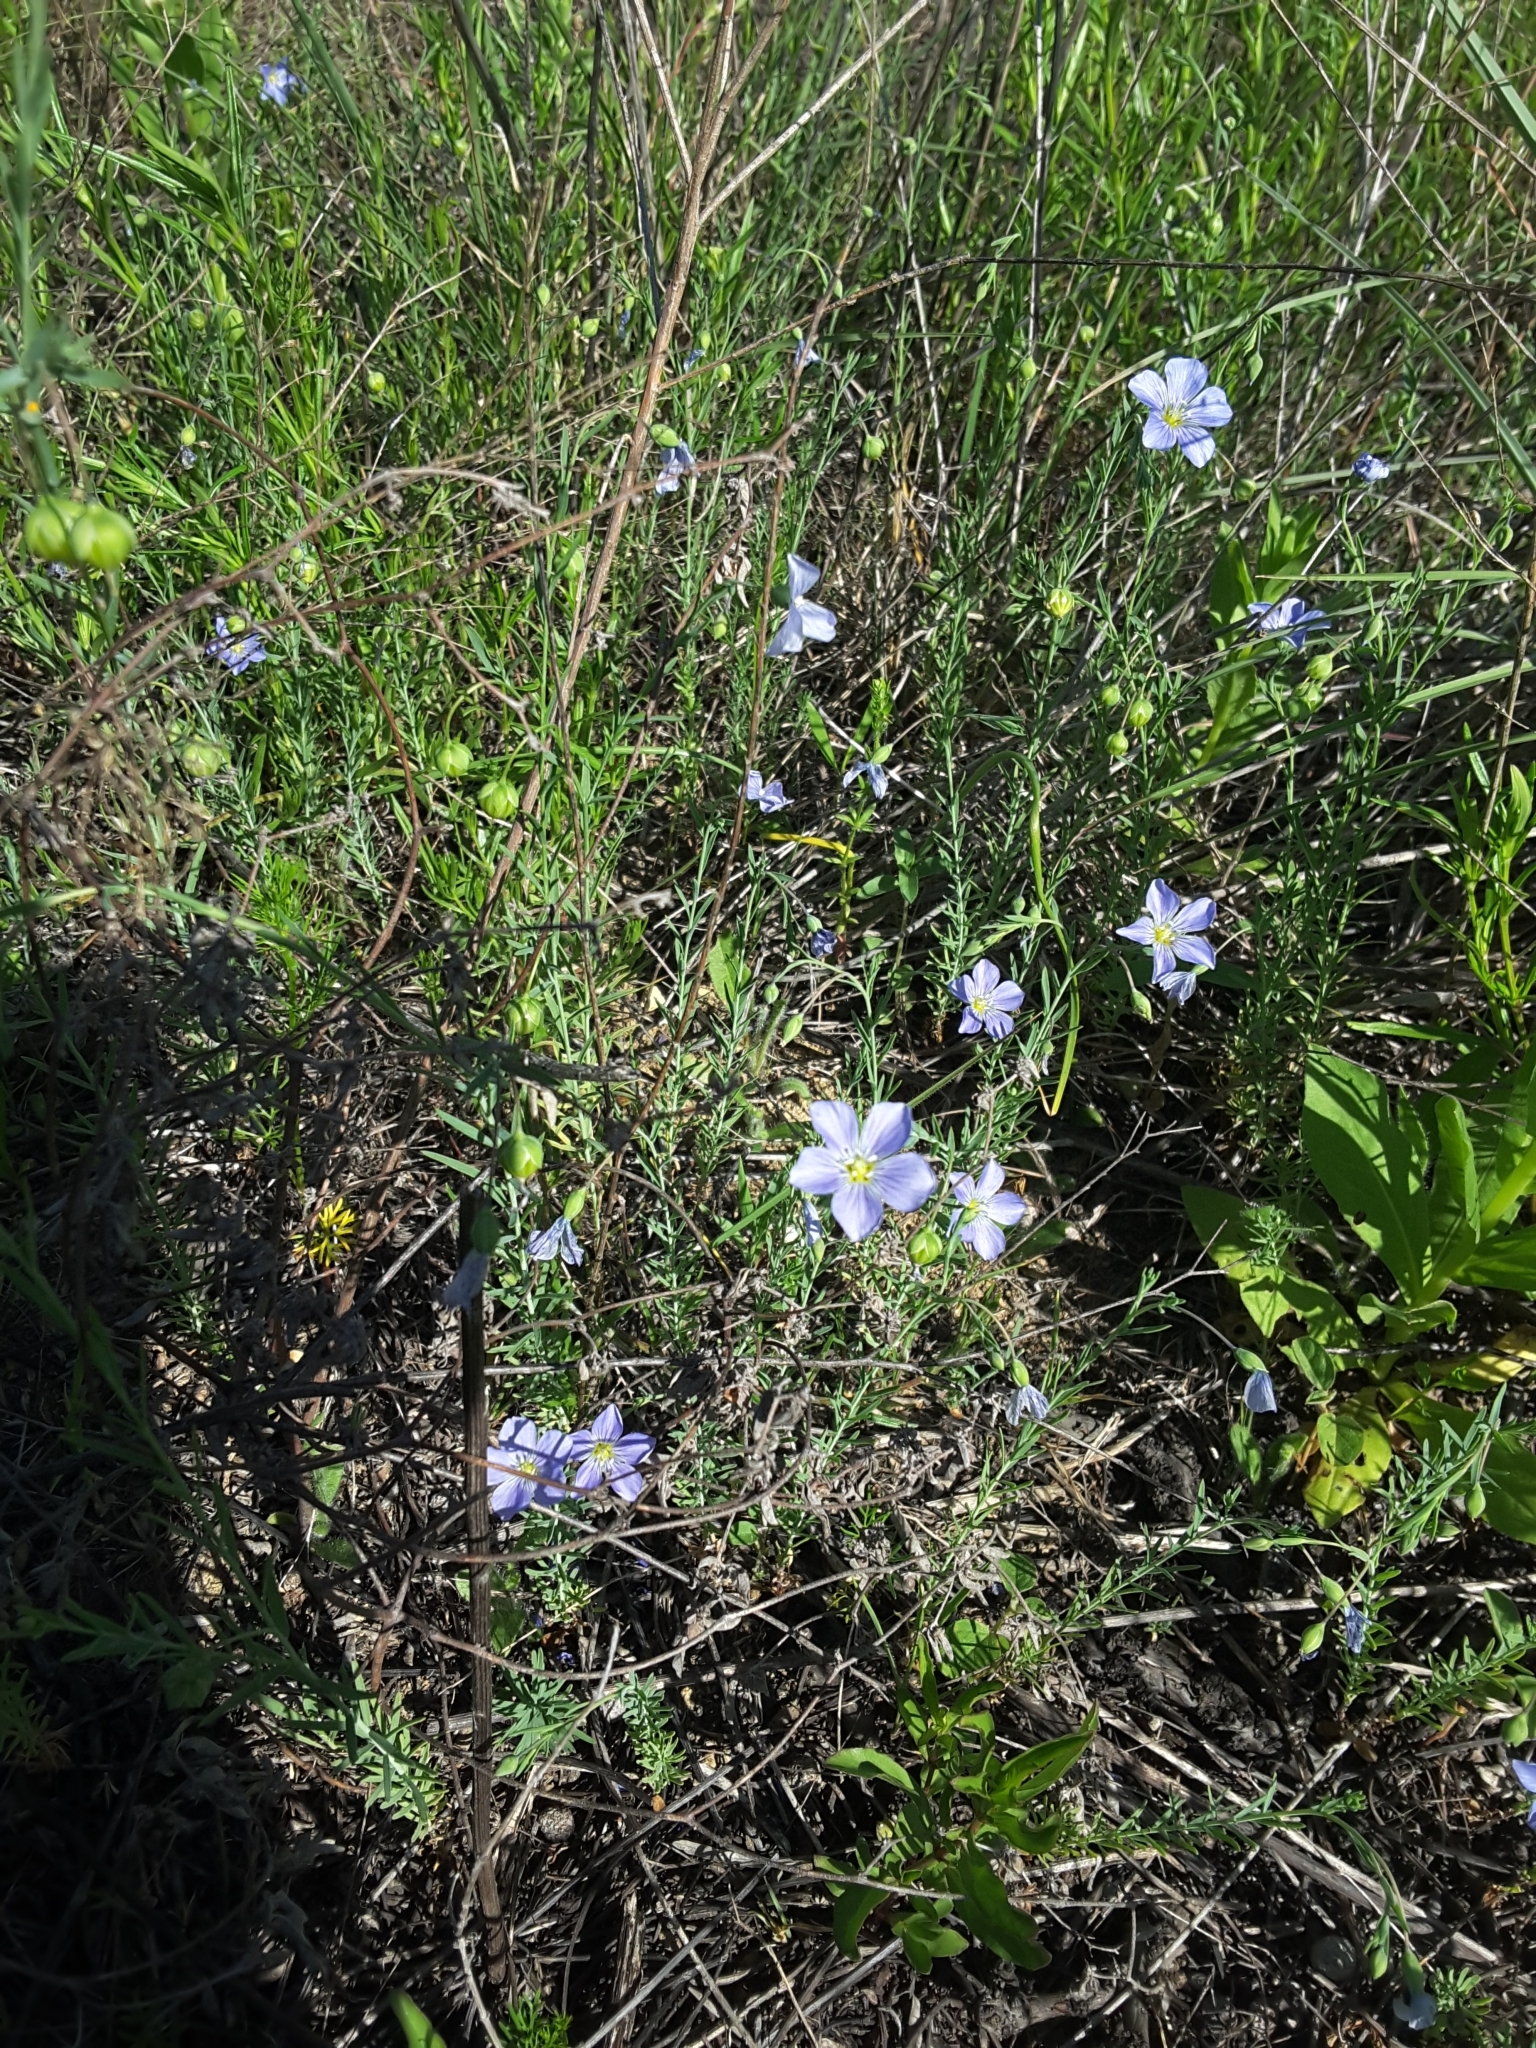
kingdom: Plantae
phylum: Tracheophyta
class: Magnoliopsida
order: Malpighiales
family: Linaceae
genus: Linum
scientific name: Linum pratense
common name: Norton's flax
